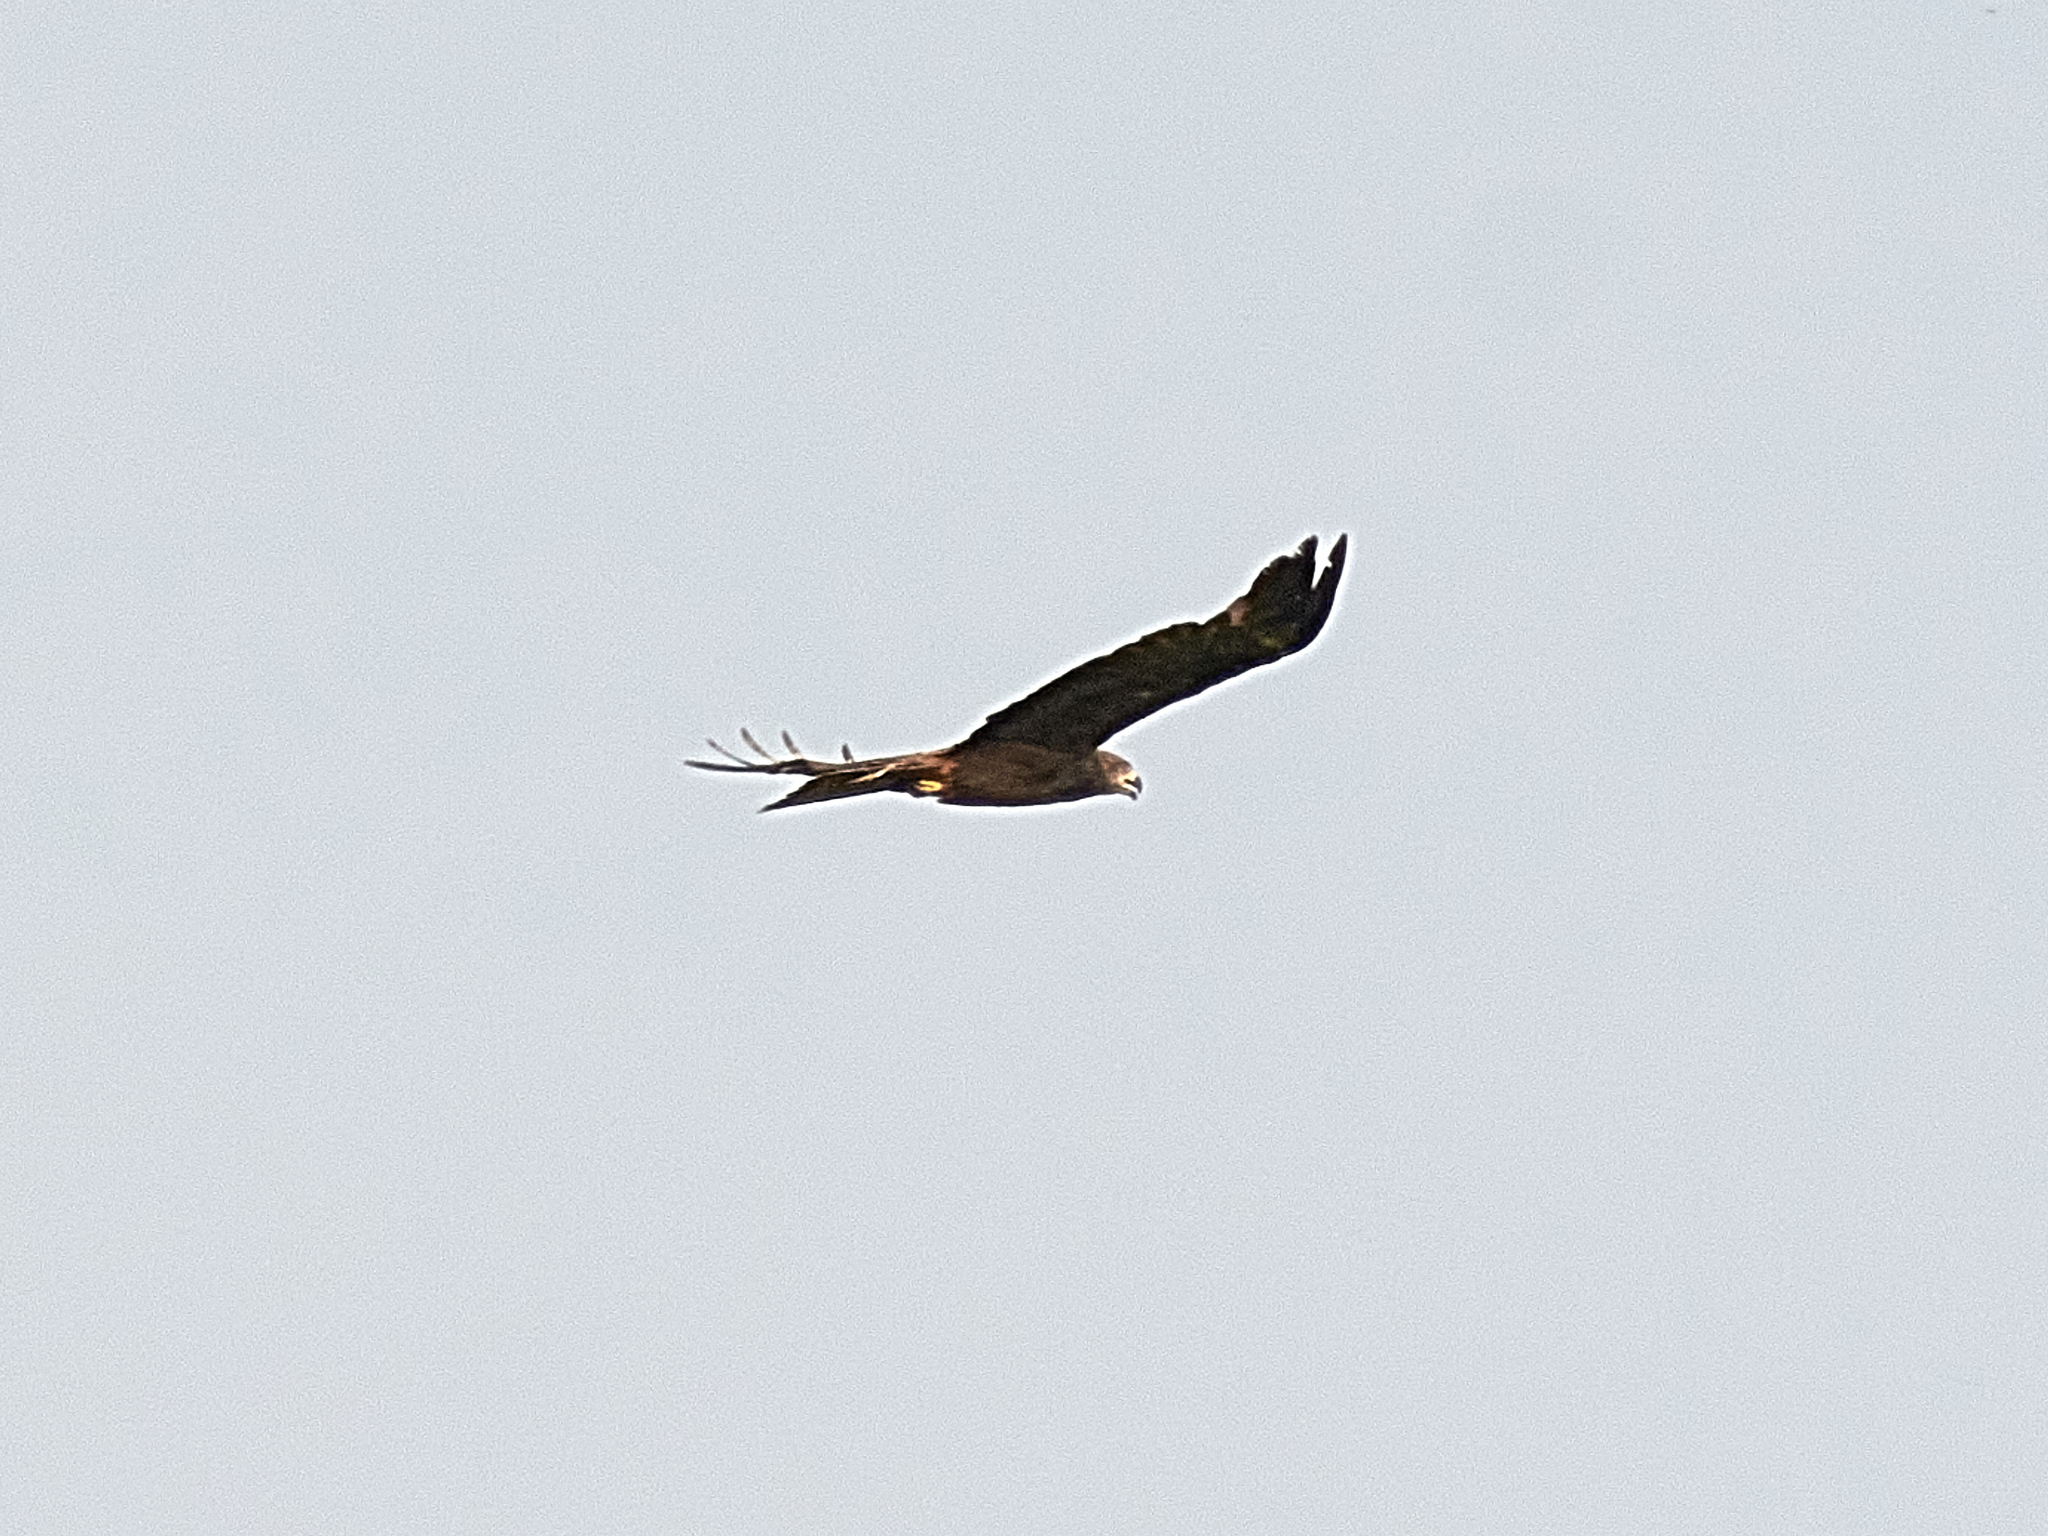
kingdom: Animalia
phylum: Chordata
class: Aves
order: Accipitriformes
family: Accipitridae
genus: Milvus
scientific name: Milvus migrans
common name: Black kite
